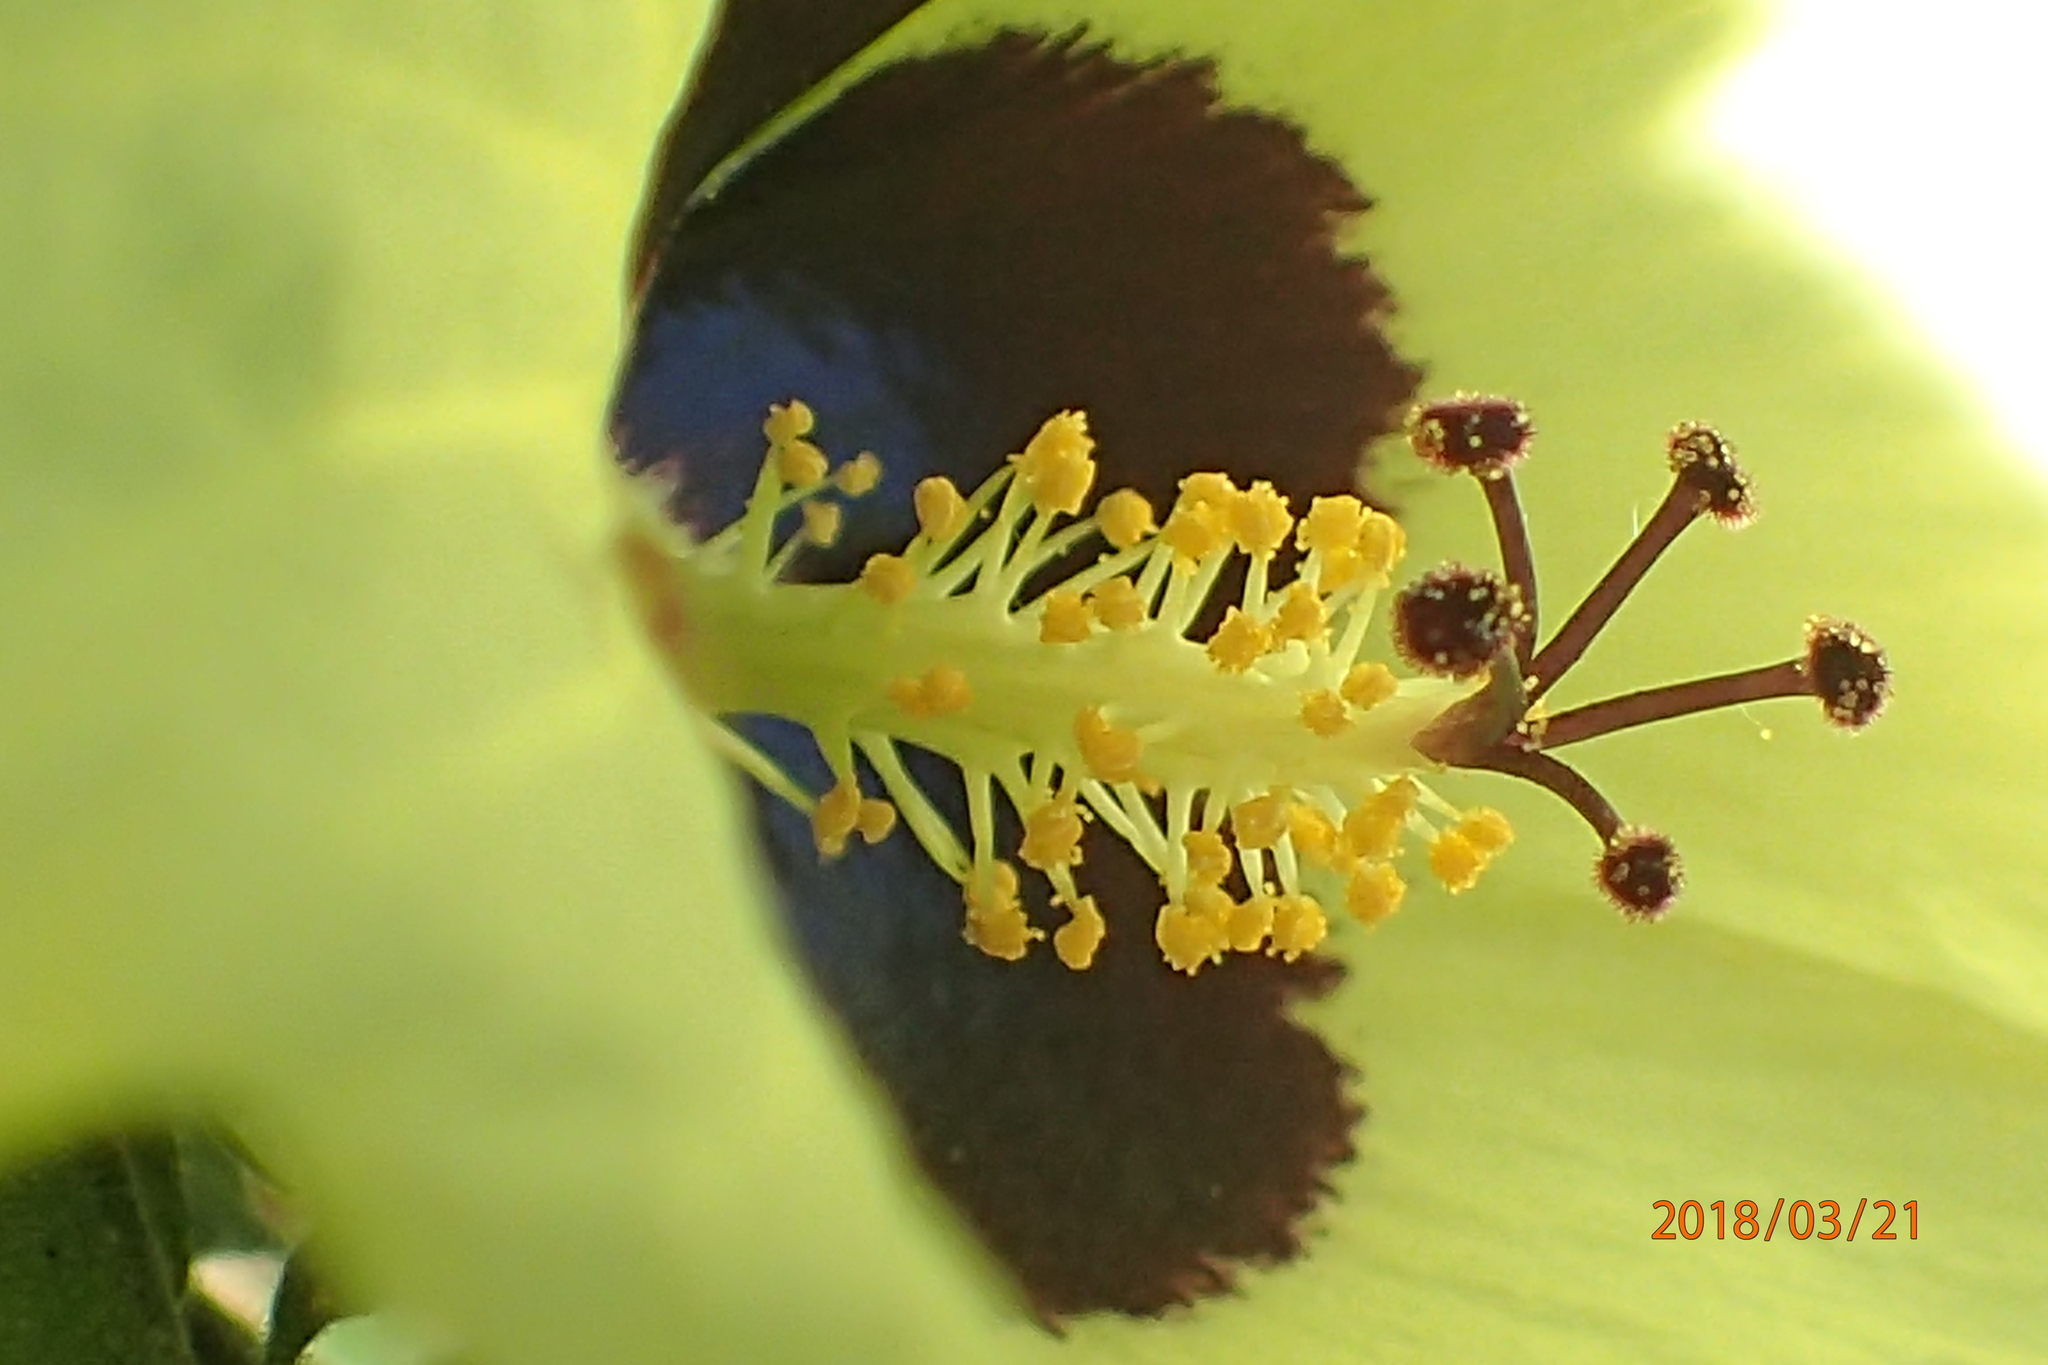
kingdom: Plantae
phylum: Tracheophyta
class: Magnoliopsida
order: Malvales
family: Malvaceae
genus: Hibiscus
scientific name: Hibiscus calyphyllus
